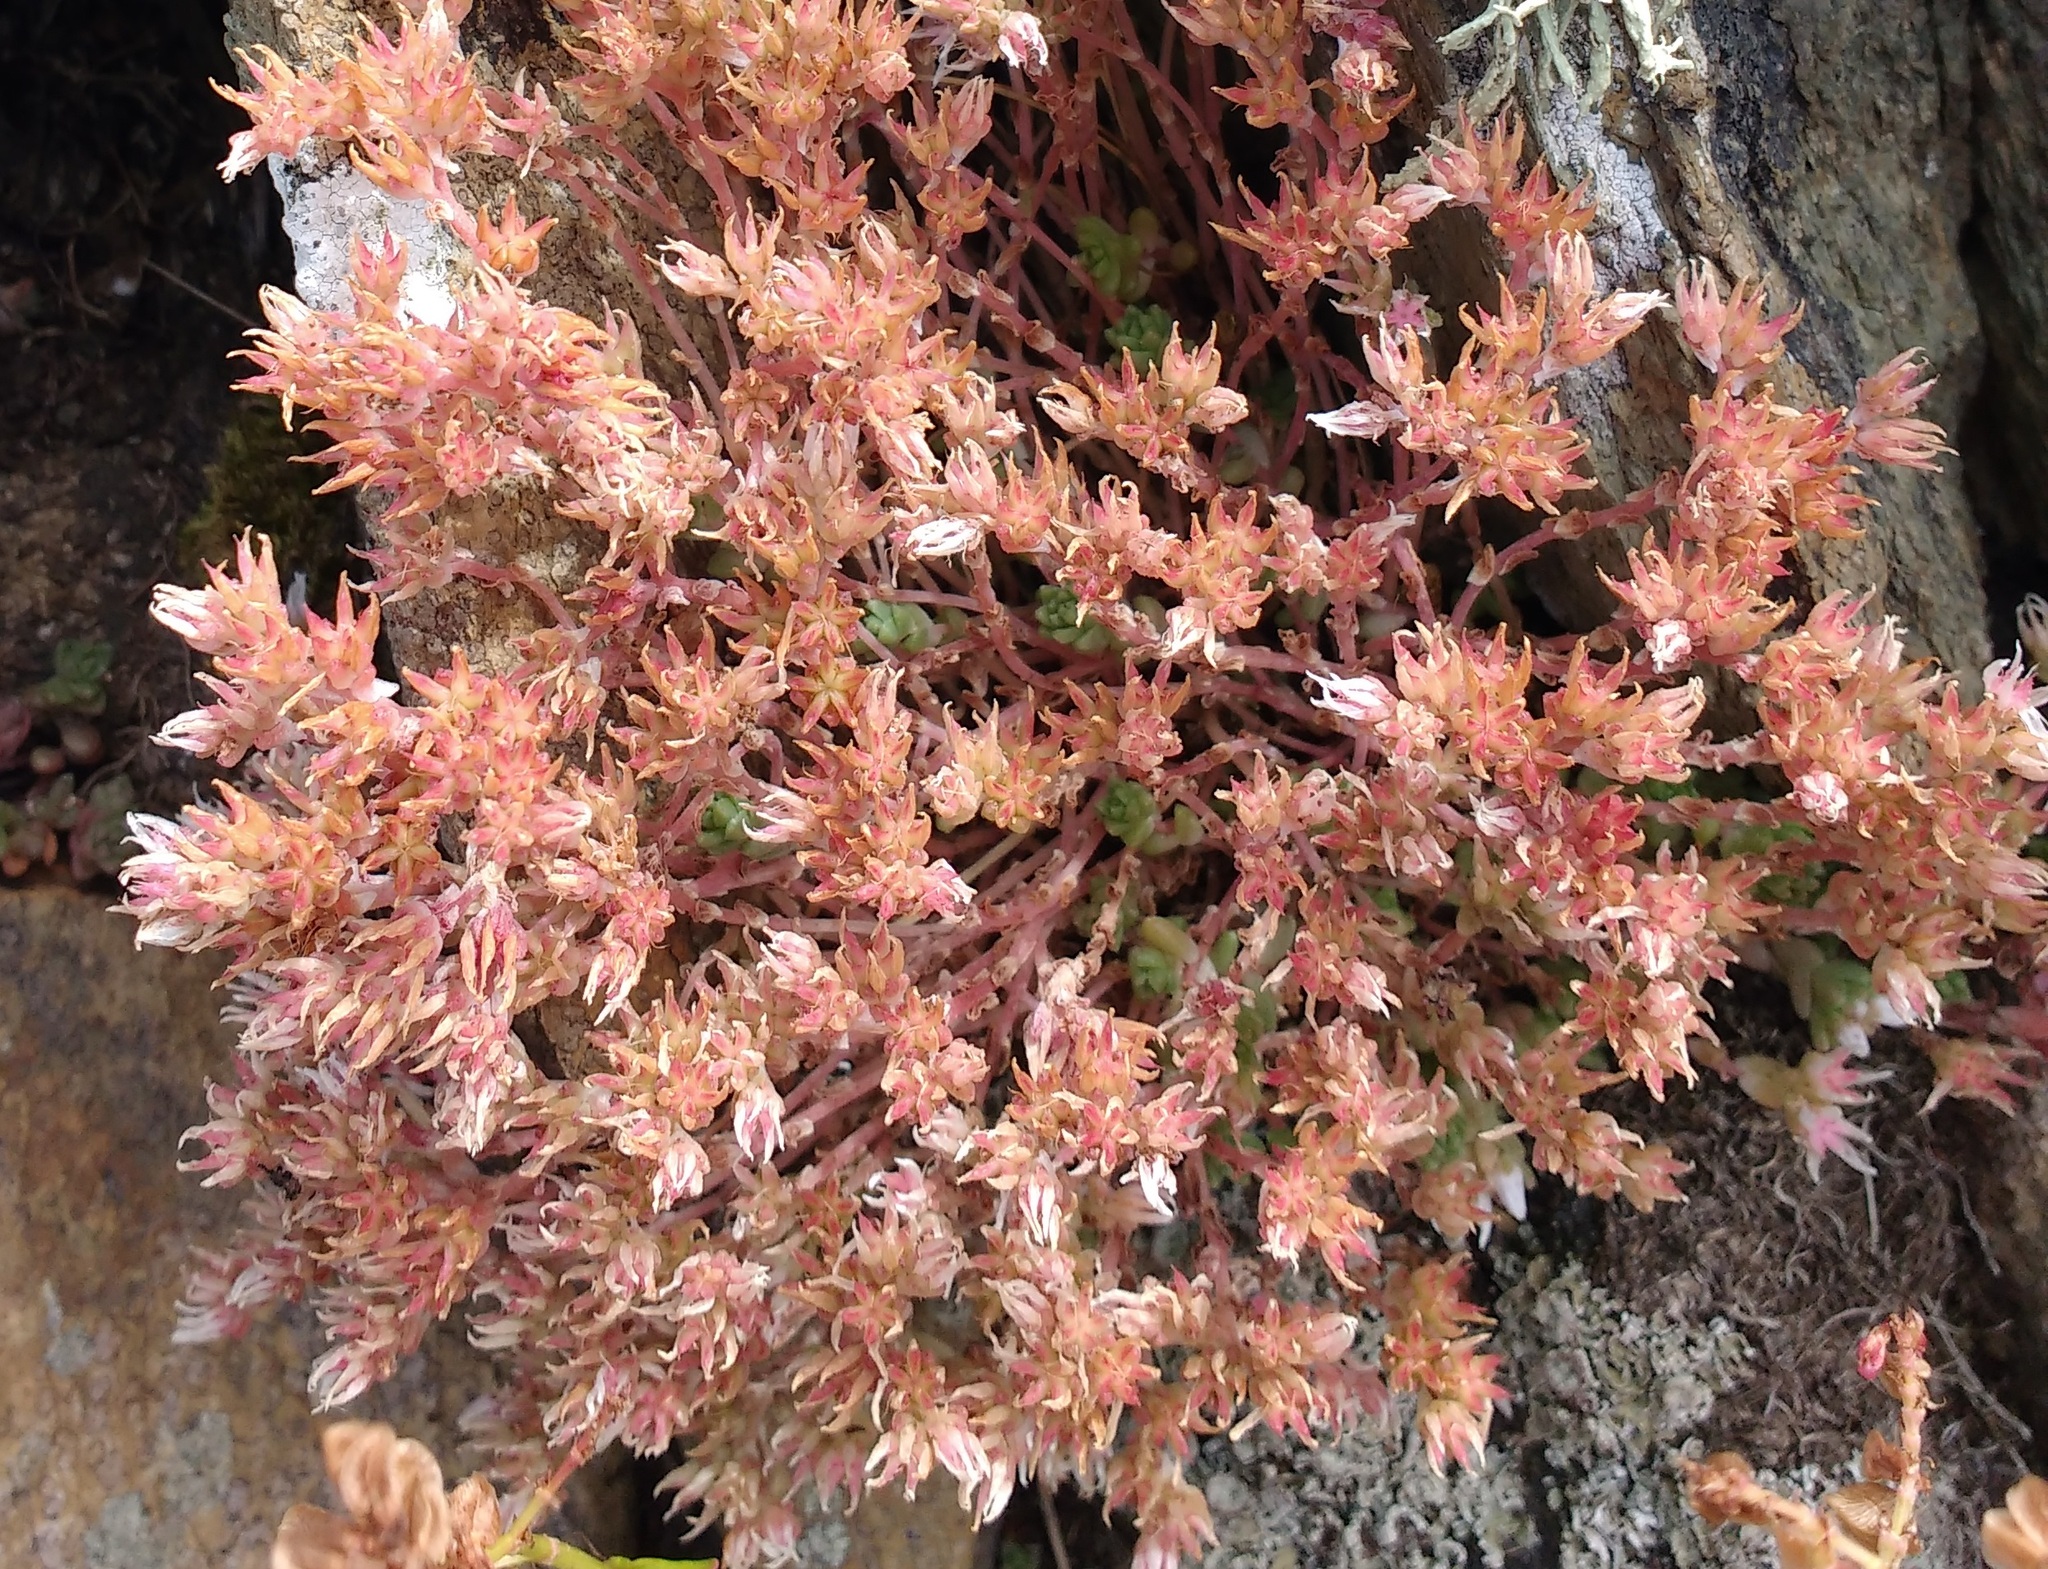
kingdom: Plantae
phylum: Tracheophyta
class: Magnoliopsida
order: Saxifragales
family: Crassulaceae
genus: Sedum
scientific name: Sedum anglicum
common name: English stonecrop
